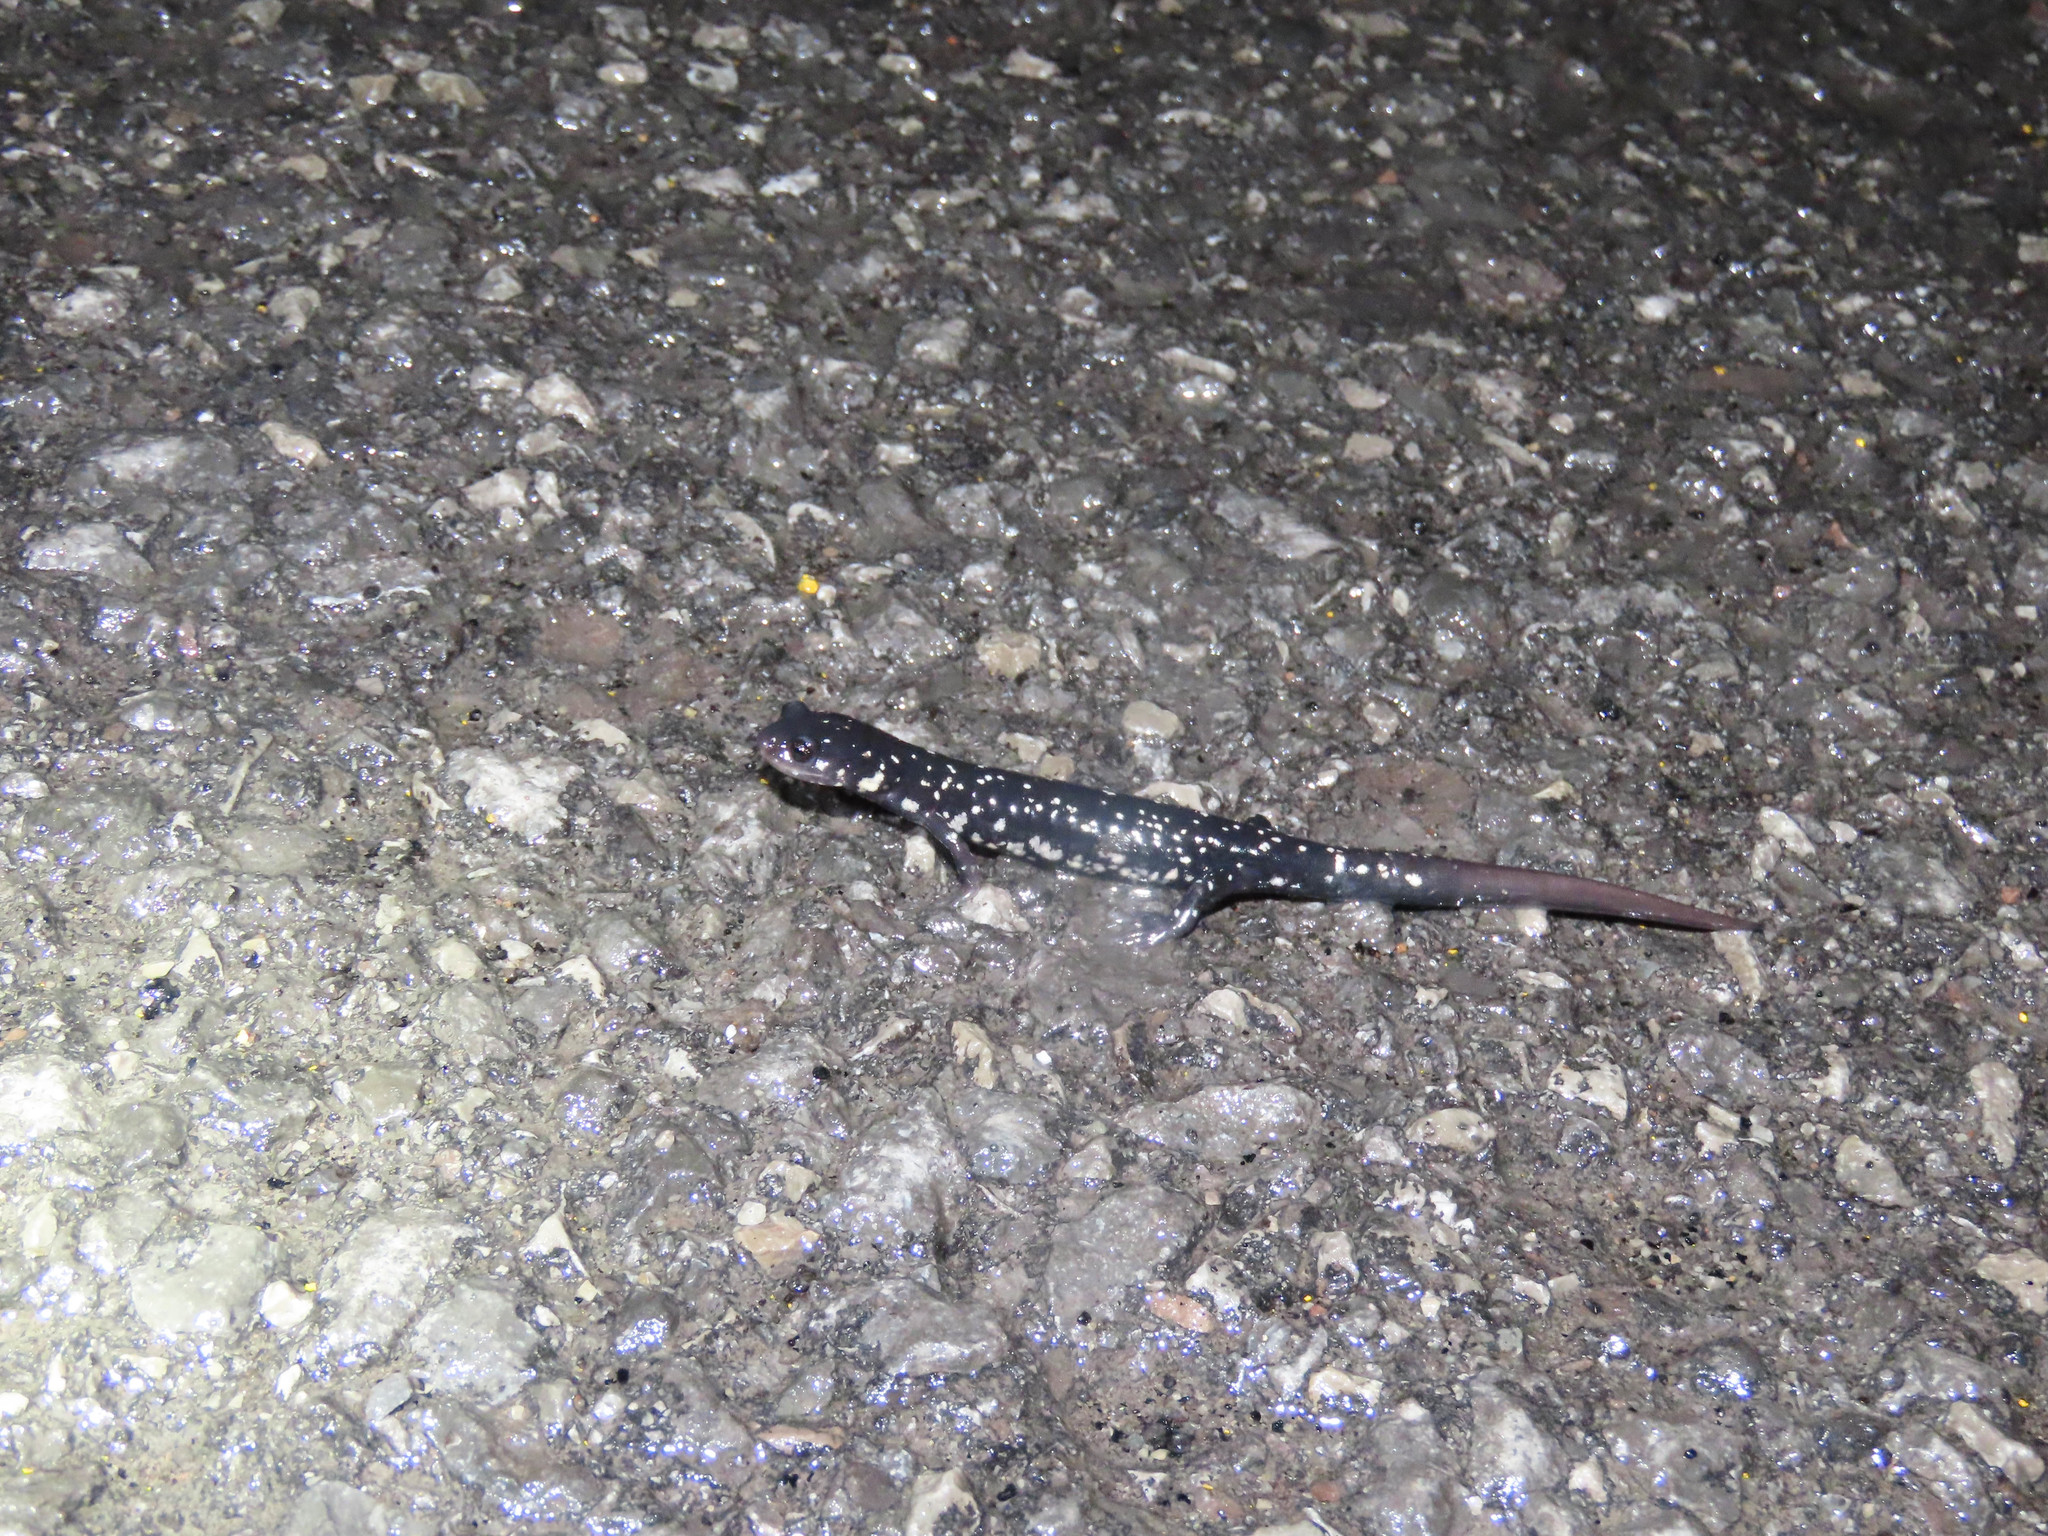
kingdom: Animalia
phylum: Chordata
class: Amphibia
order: Caudata
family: Plethodontidae
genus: Plethodon
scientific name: Plethodon glutinosus
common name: Northern slimy salamander
